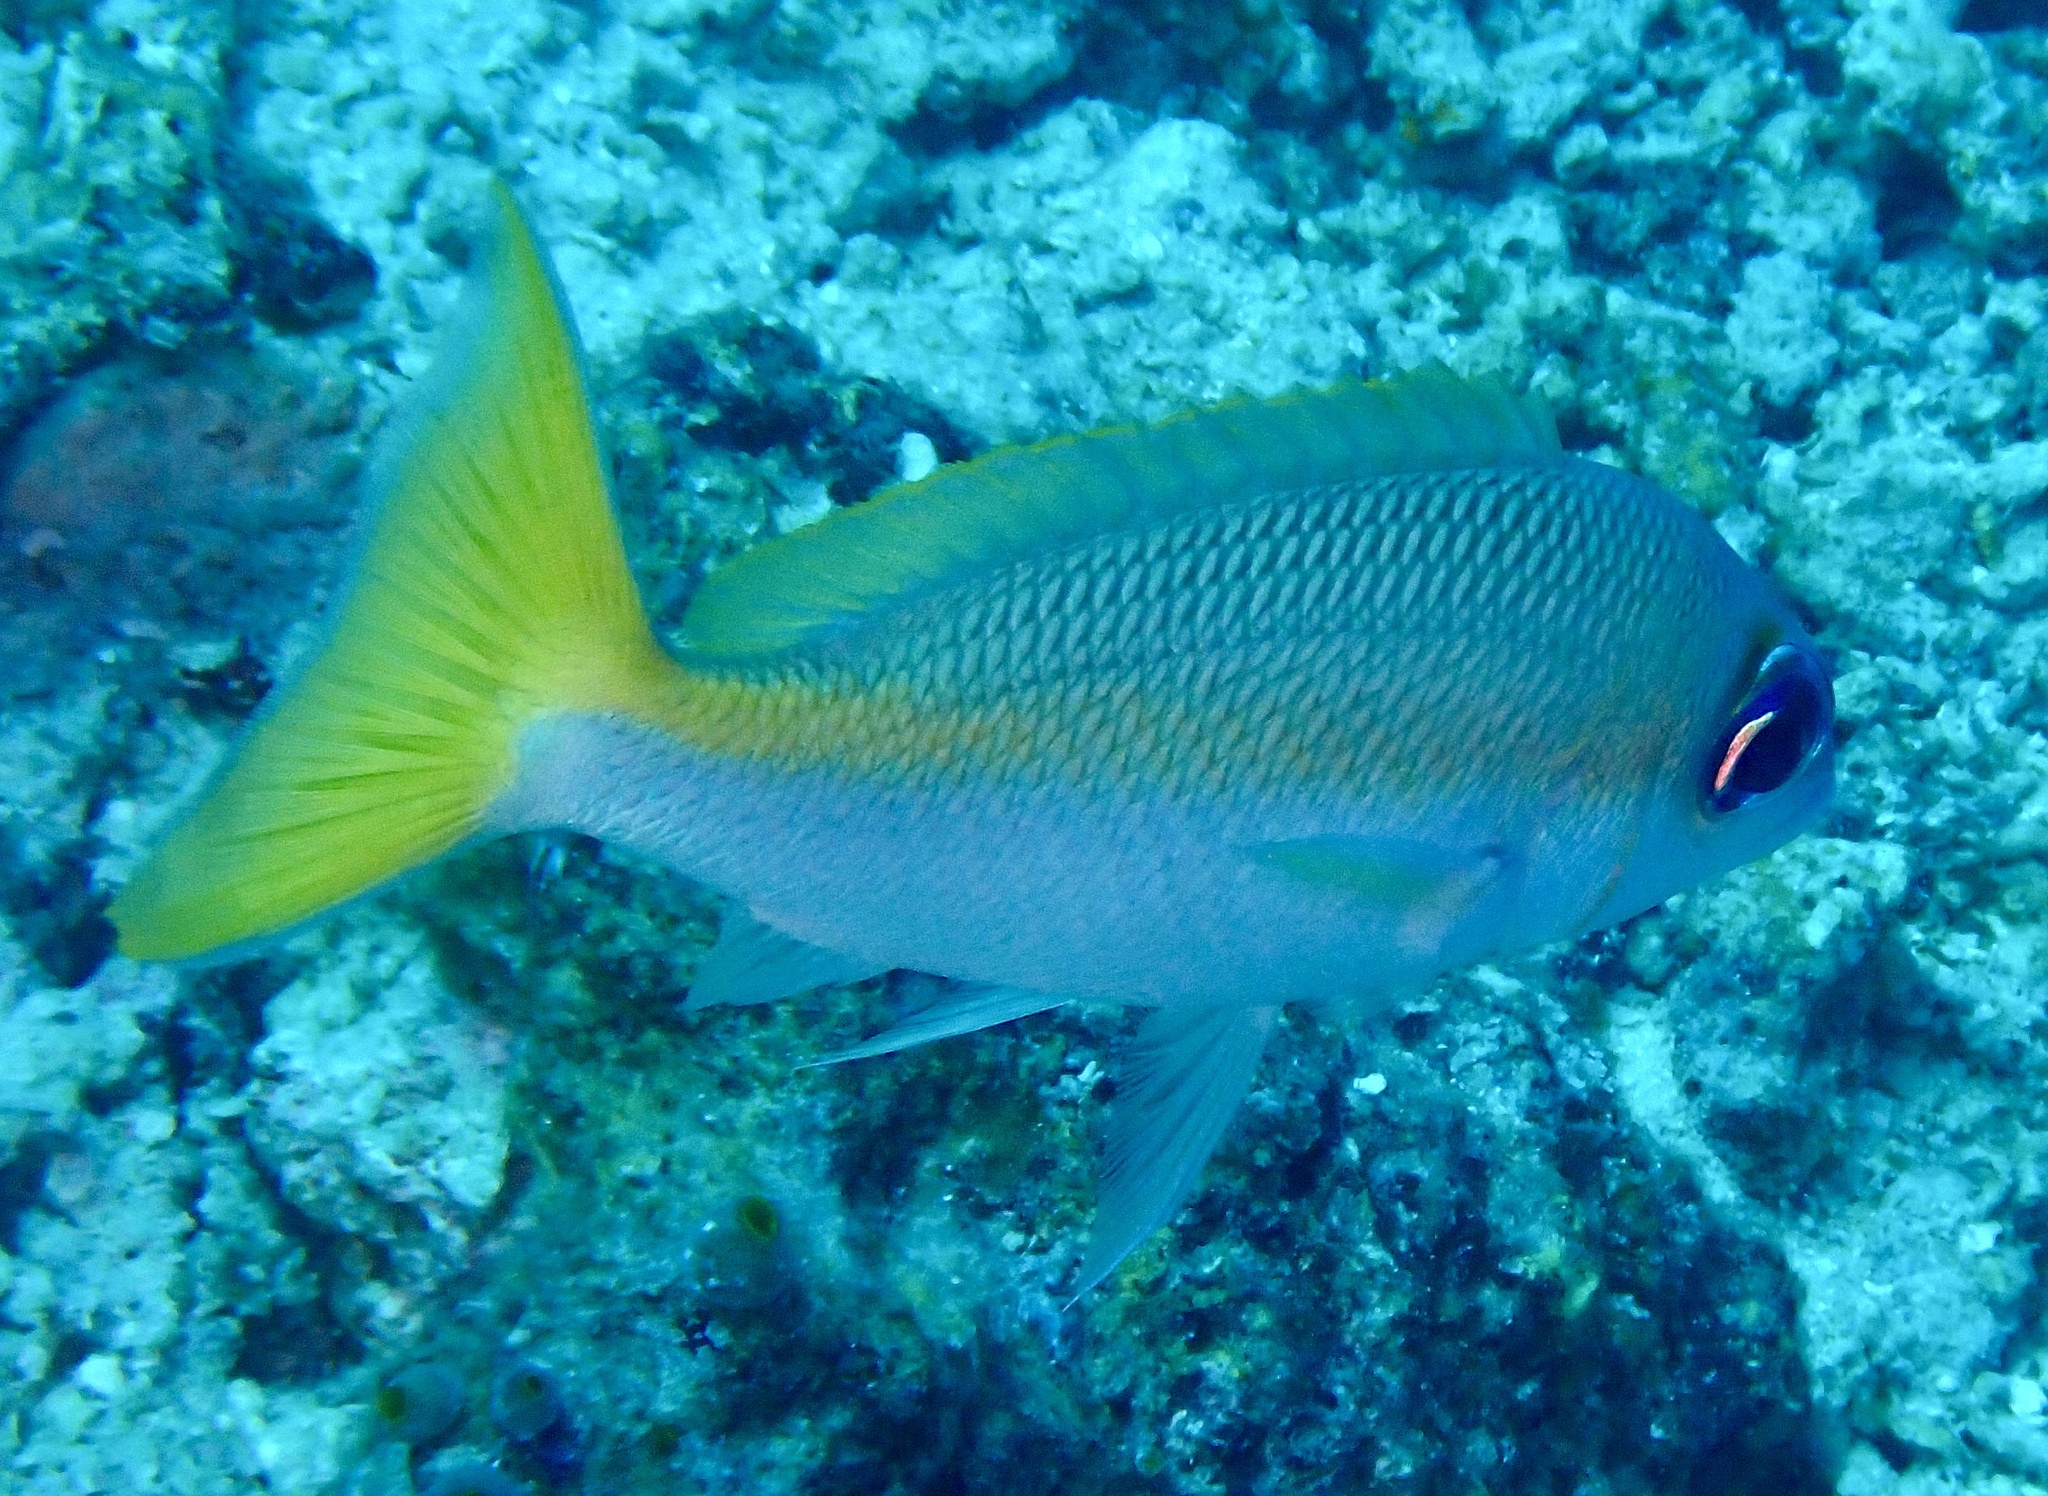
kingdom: Animalia
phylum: Chordata
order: Perciformes
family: Nemipteridae
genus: Scolopsis
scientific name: Scolopsis affinis
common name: Peters' monocle bream
